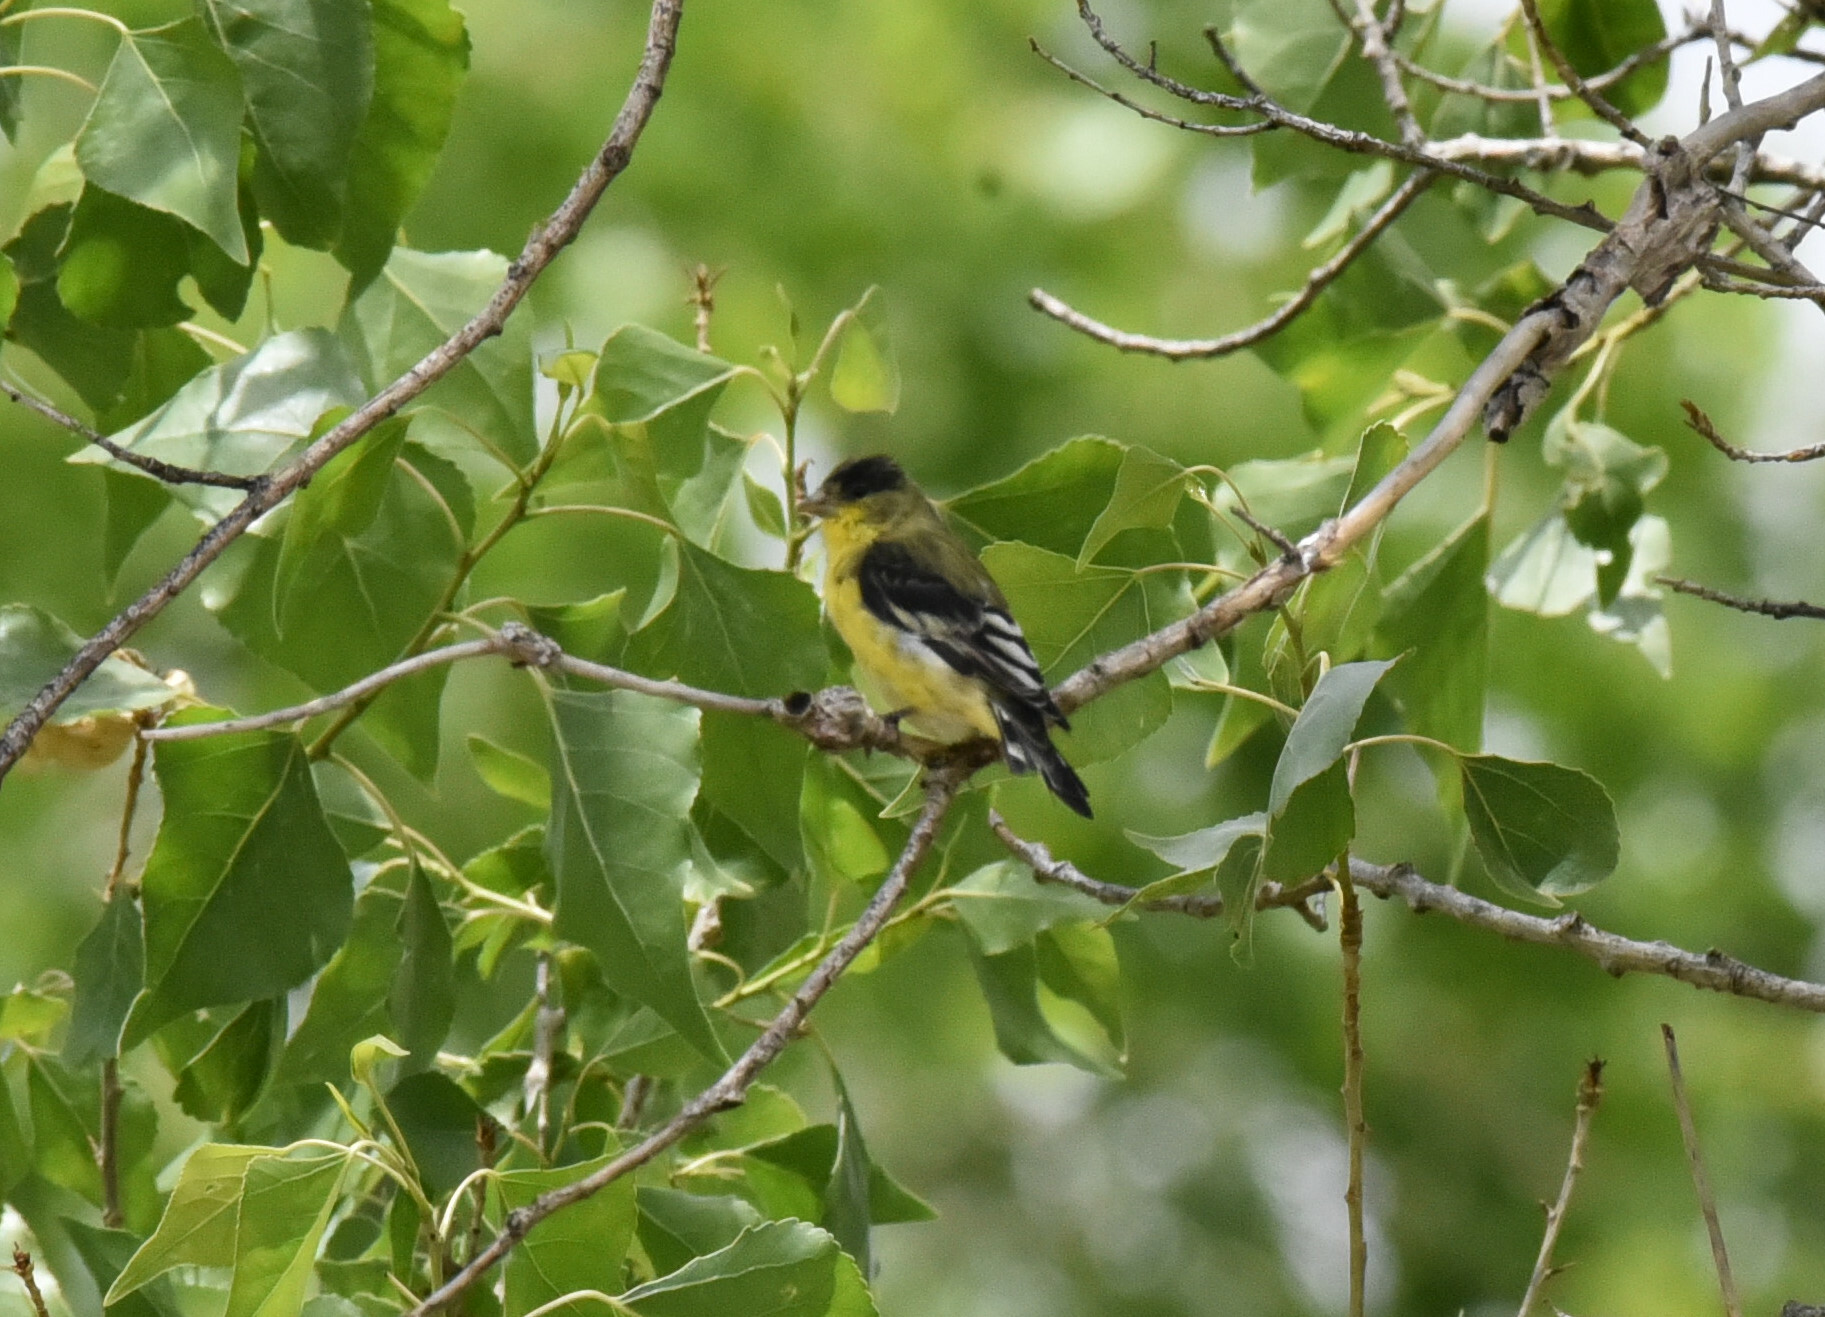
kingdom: Animalia
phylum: Chordata
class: Aves
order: Passeriformes
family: Fringillidae
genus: Spinus
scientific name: Spinus psaltria
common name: Lesser goldfinch
